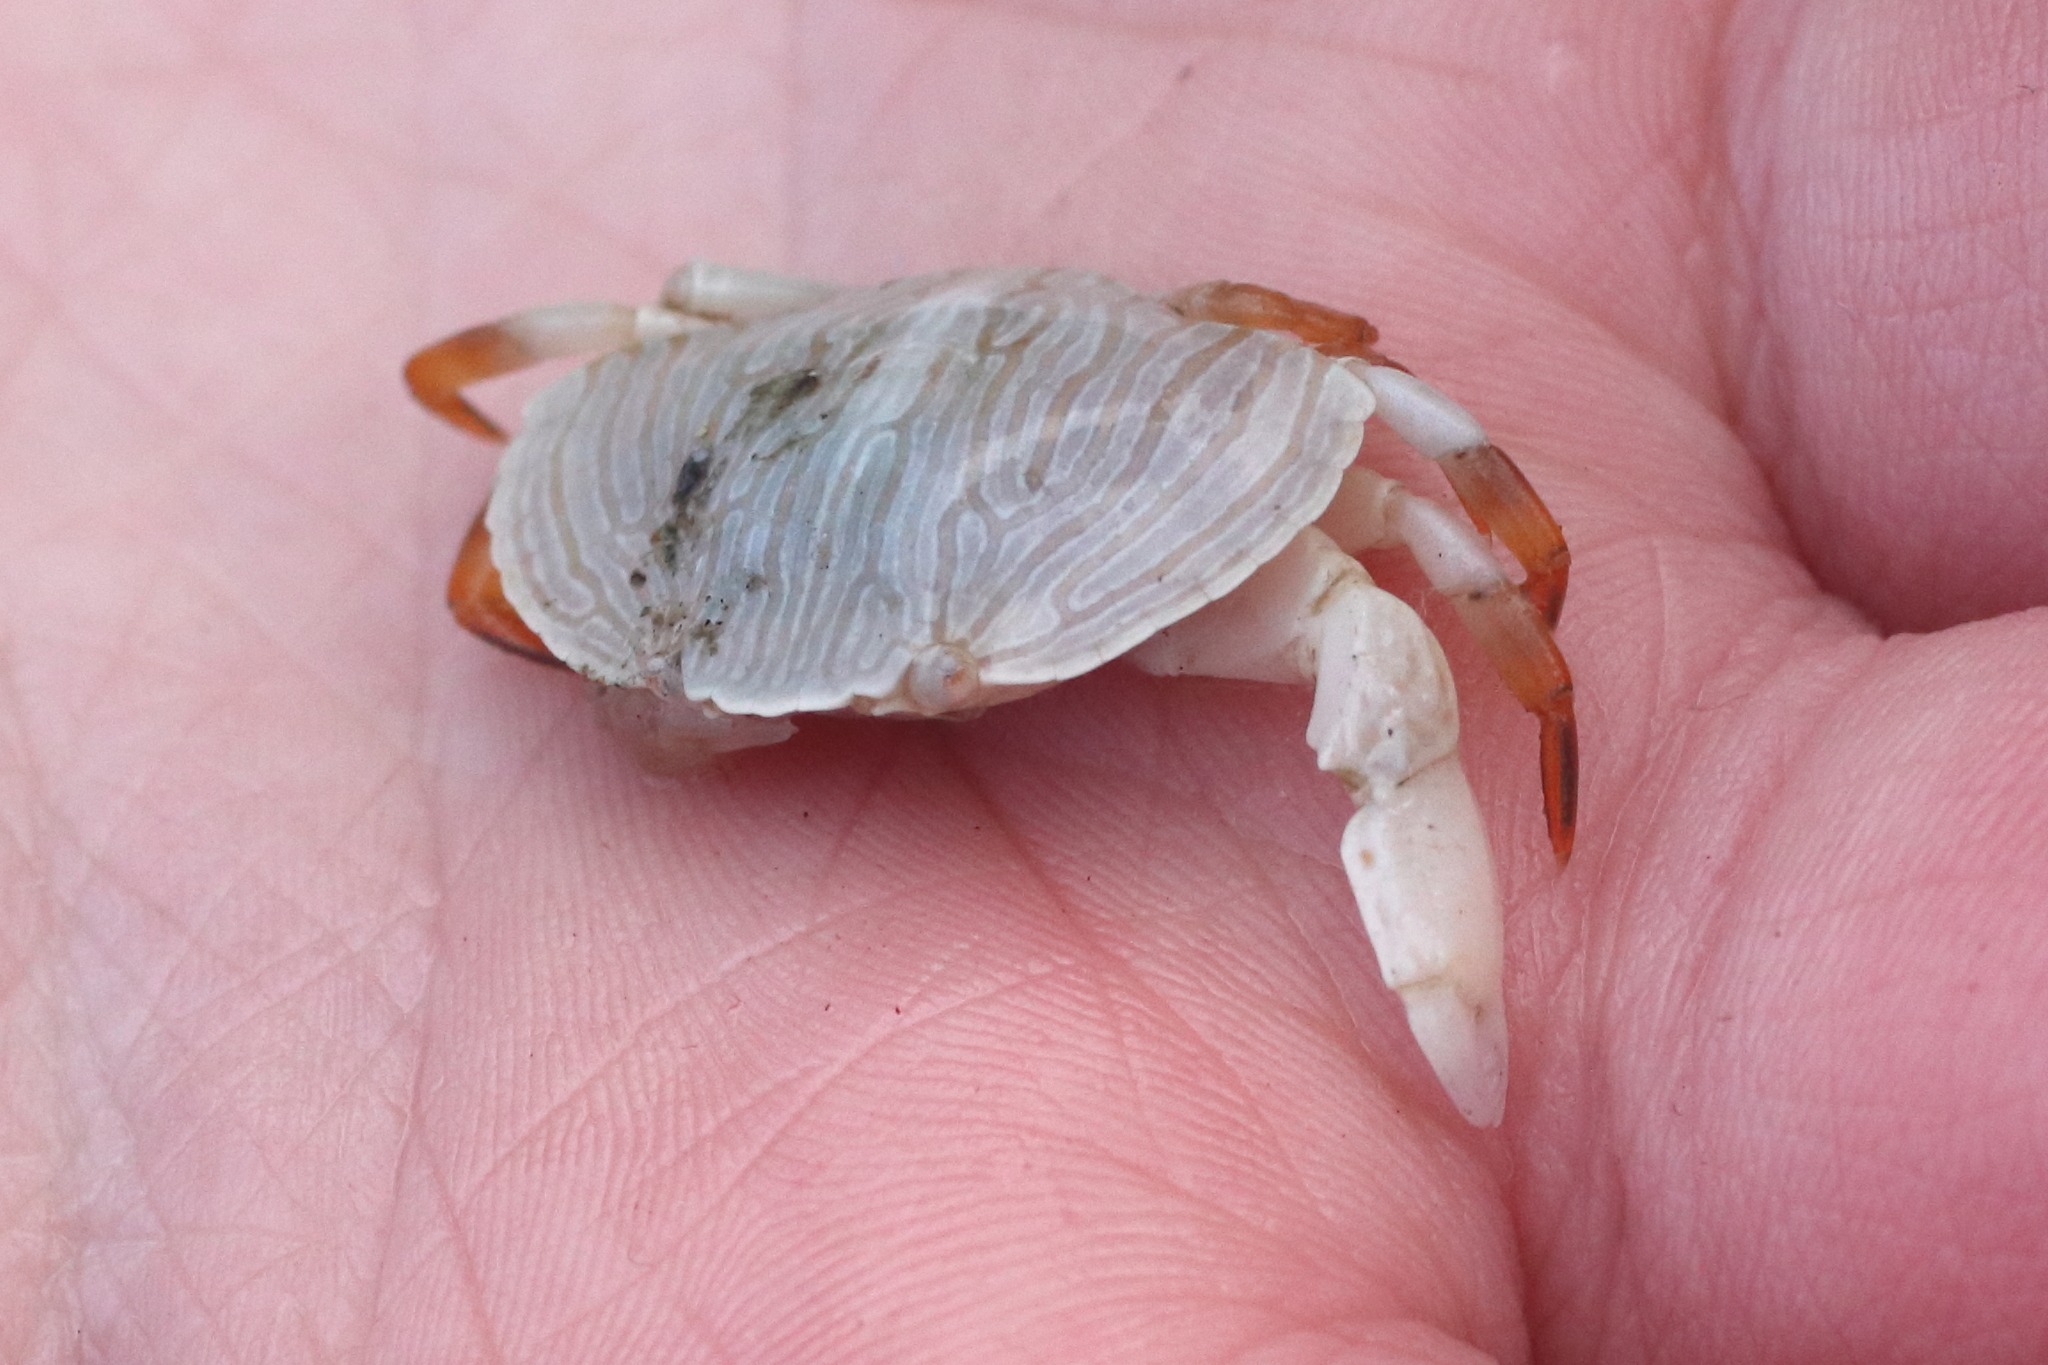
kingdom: Animalia
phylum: Arthropoda
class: Malacostraca
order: Decapoda
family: Cancridae
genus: Cancer
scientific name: Cancer productus
